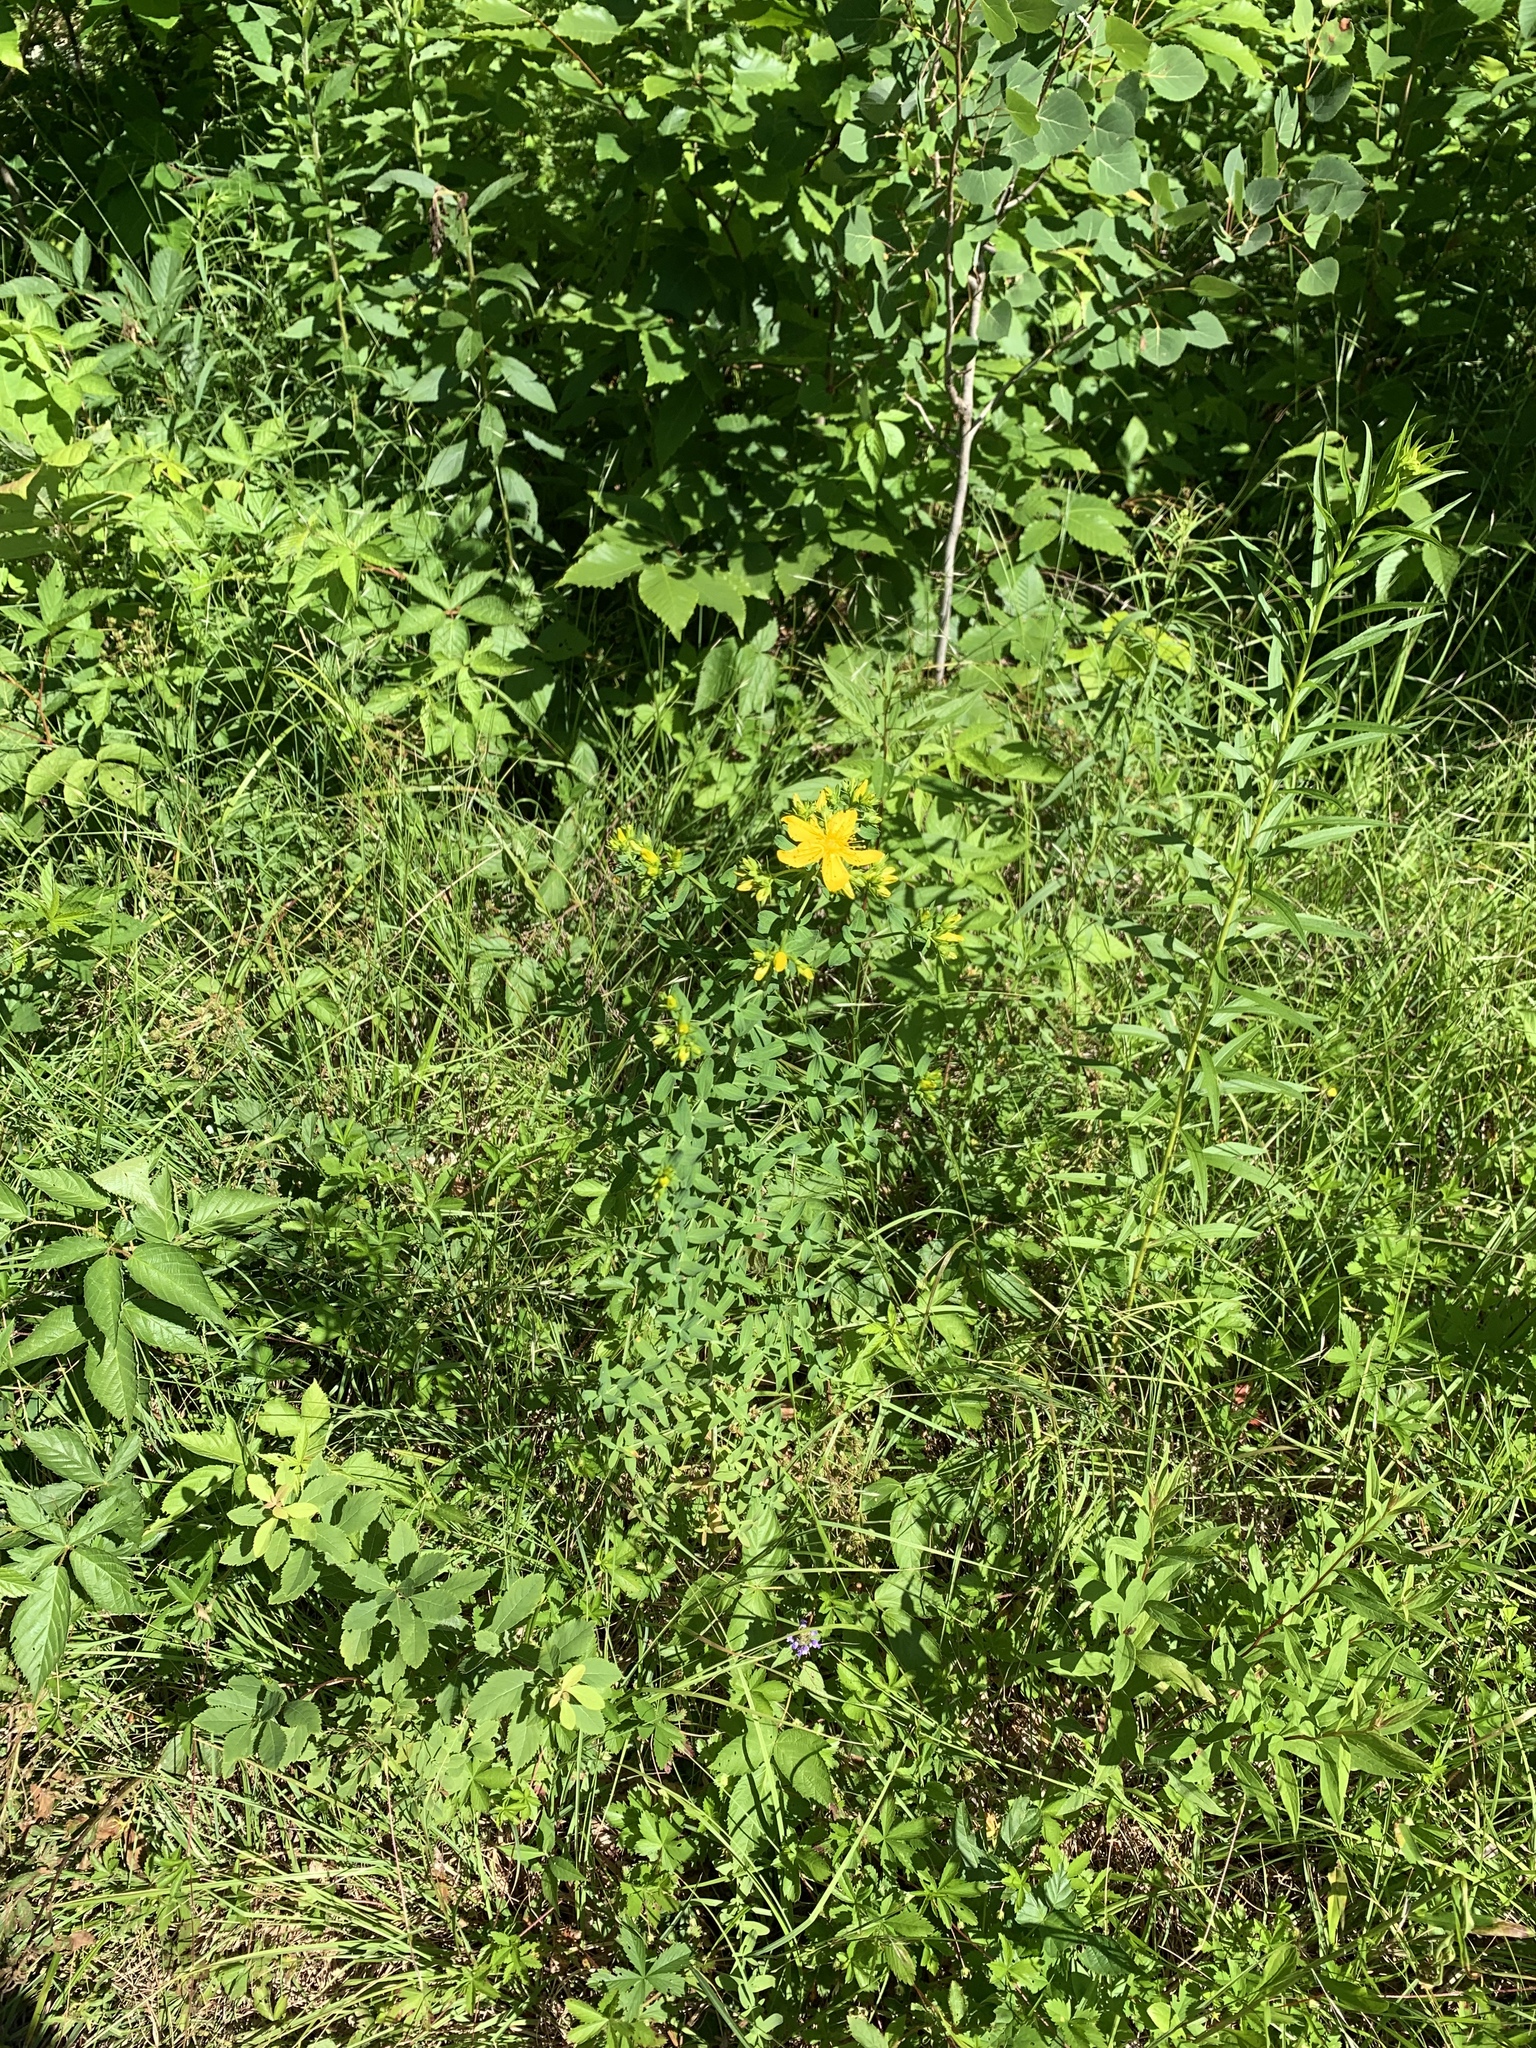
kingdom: Plantae
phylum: Tracheophyta
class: Magnoliopsida
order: Malpighiales
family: Hypericaceae
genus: Hypericum
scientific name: Hypericum perforatum
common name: Common st. johnswort
